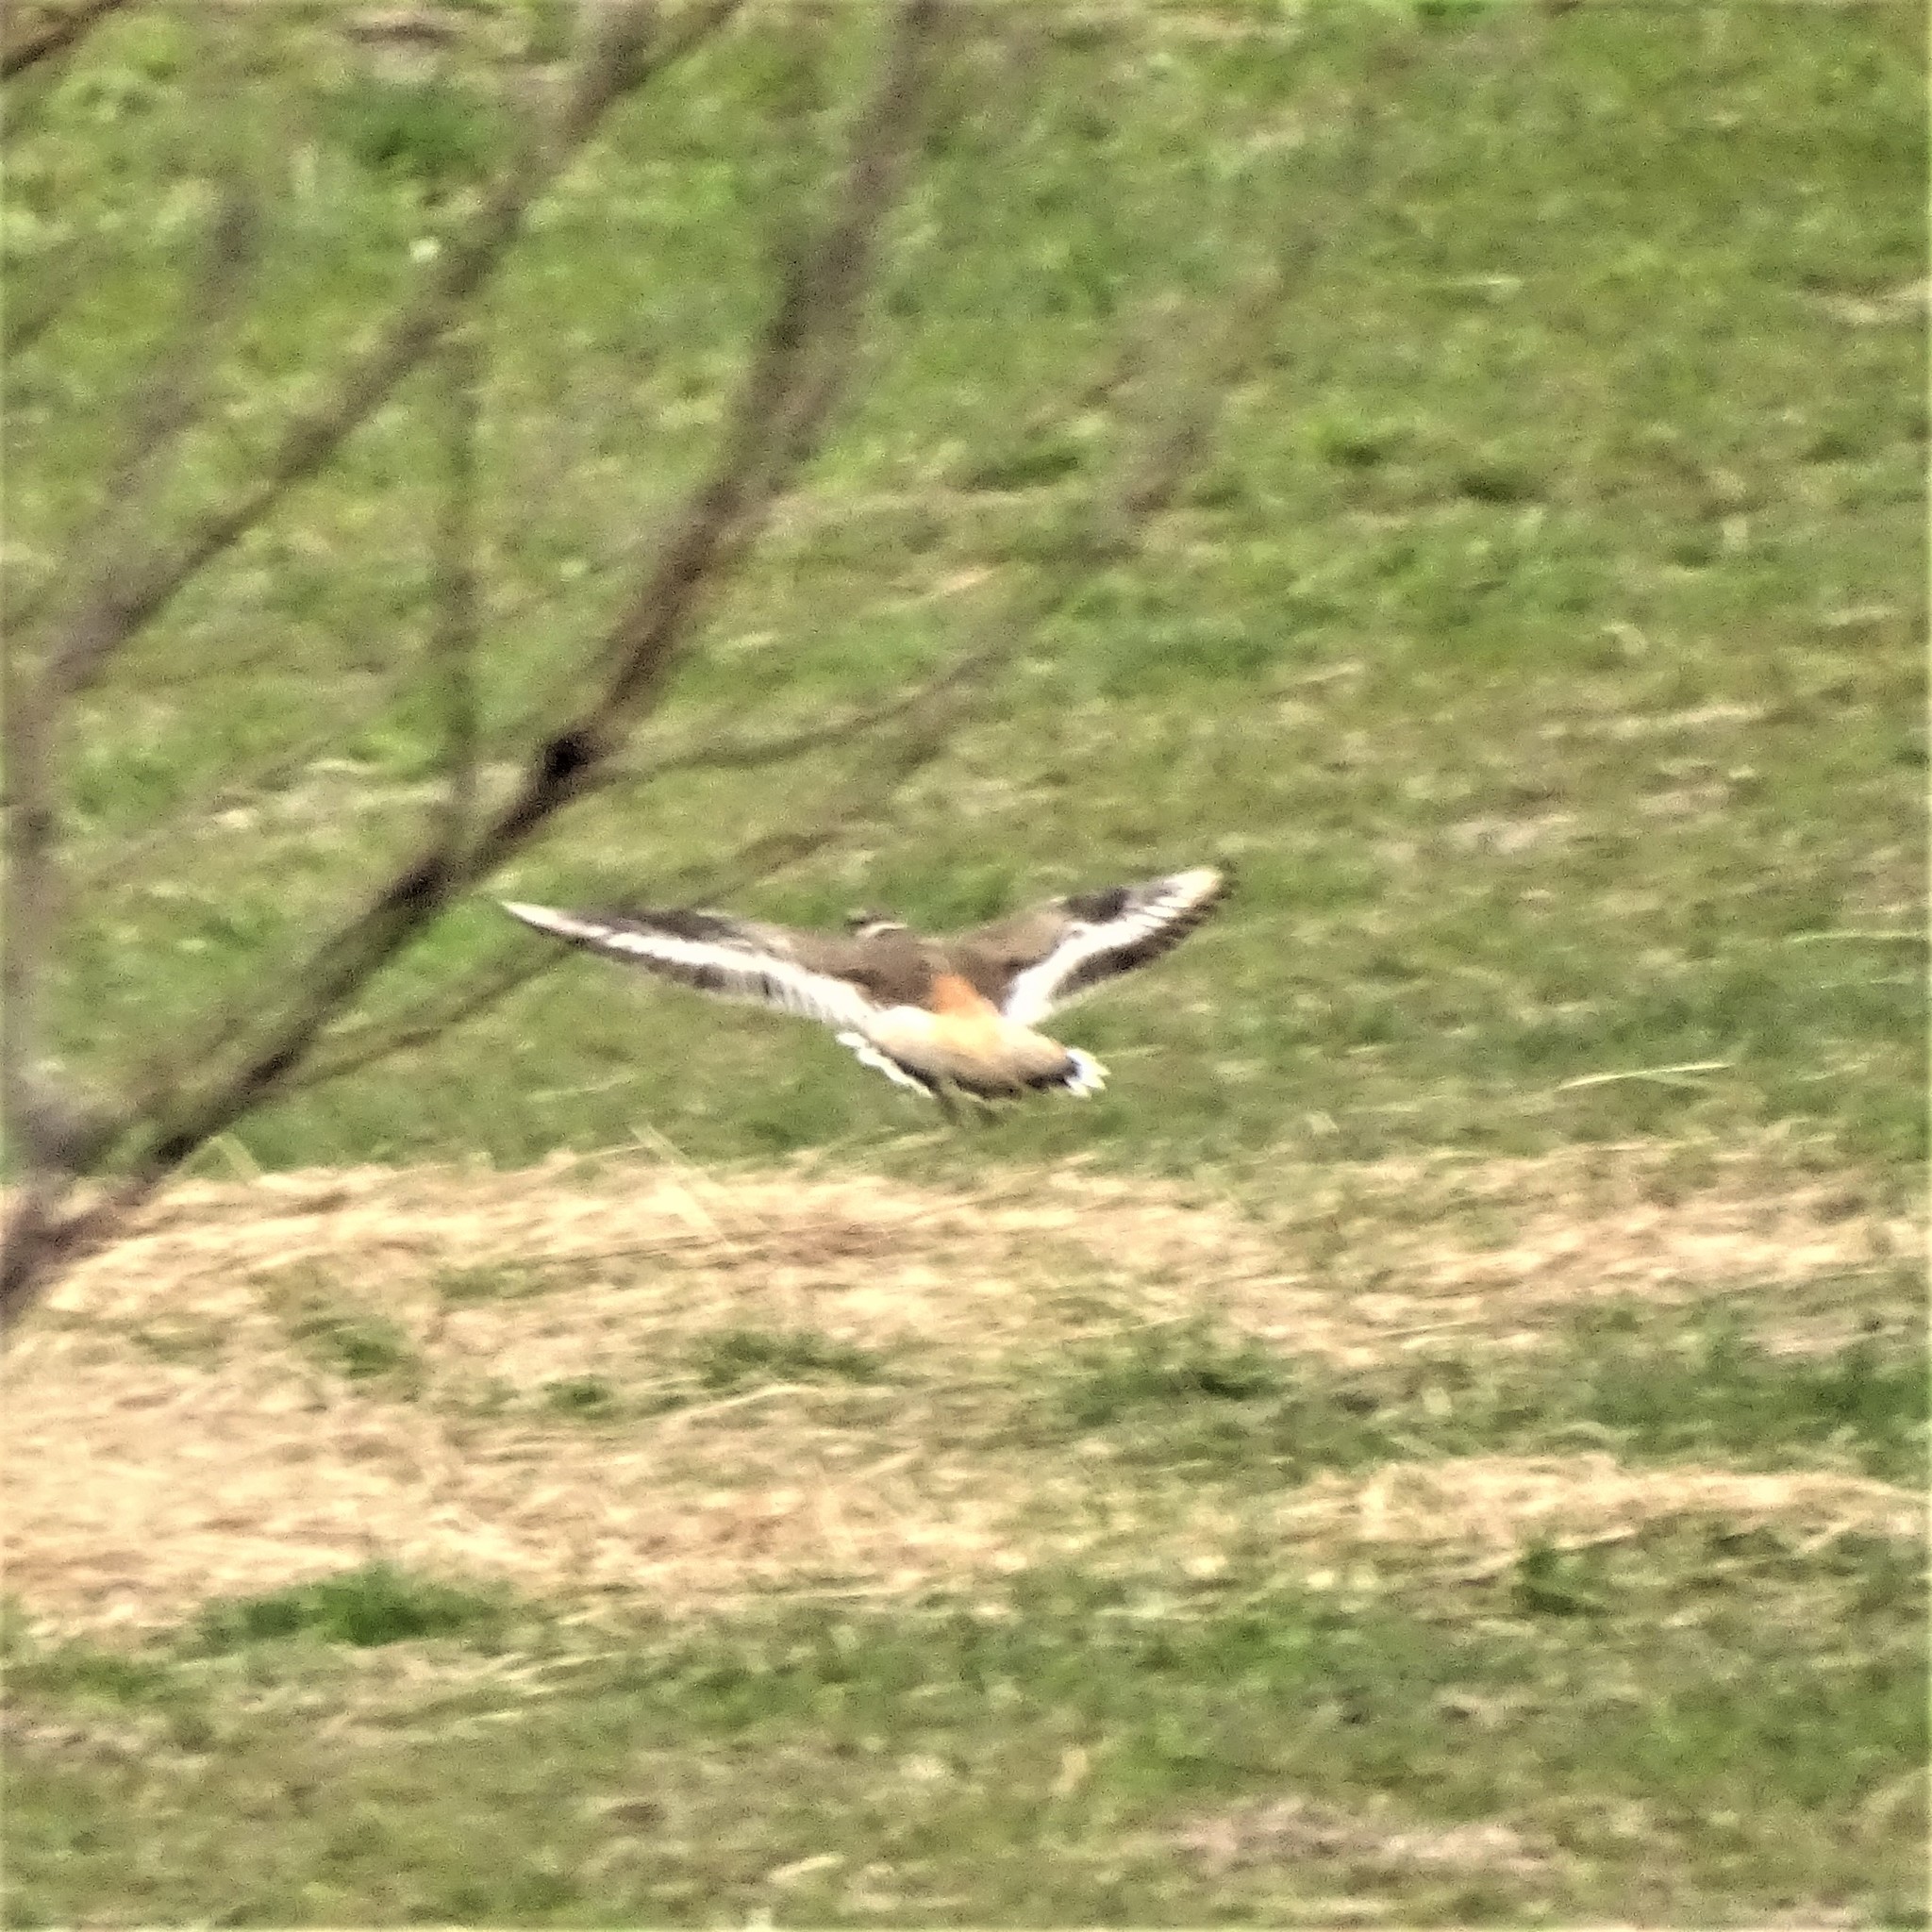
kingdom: Animalia
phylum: Chordata
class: Aves
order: Charadriiformes
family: Charadriidae
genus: Charadrius
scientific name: Charadrius vociferus
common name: Killdeer
